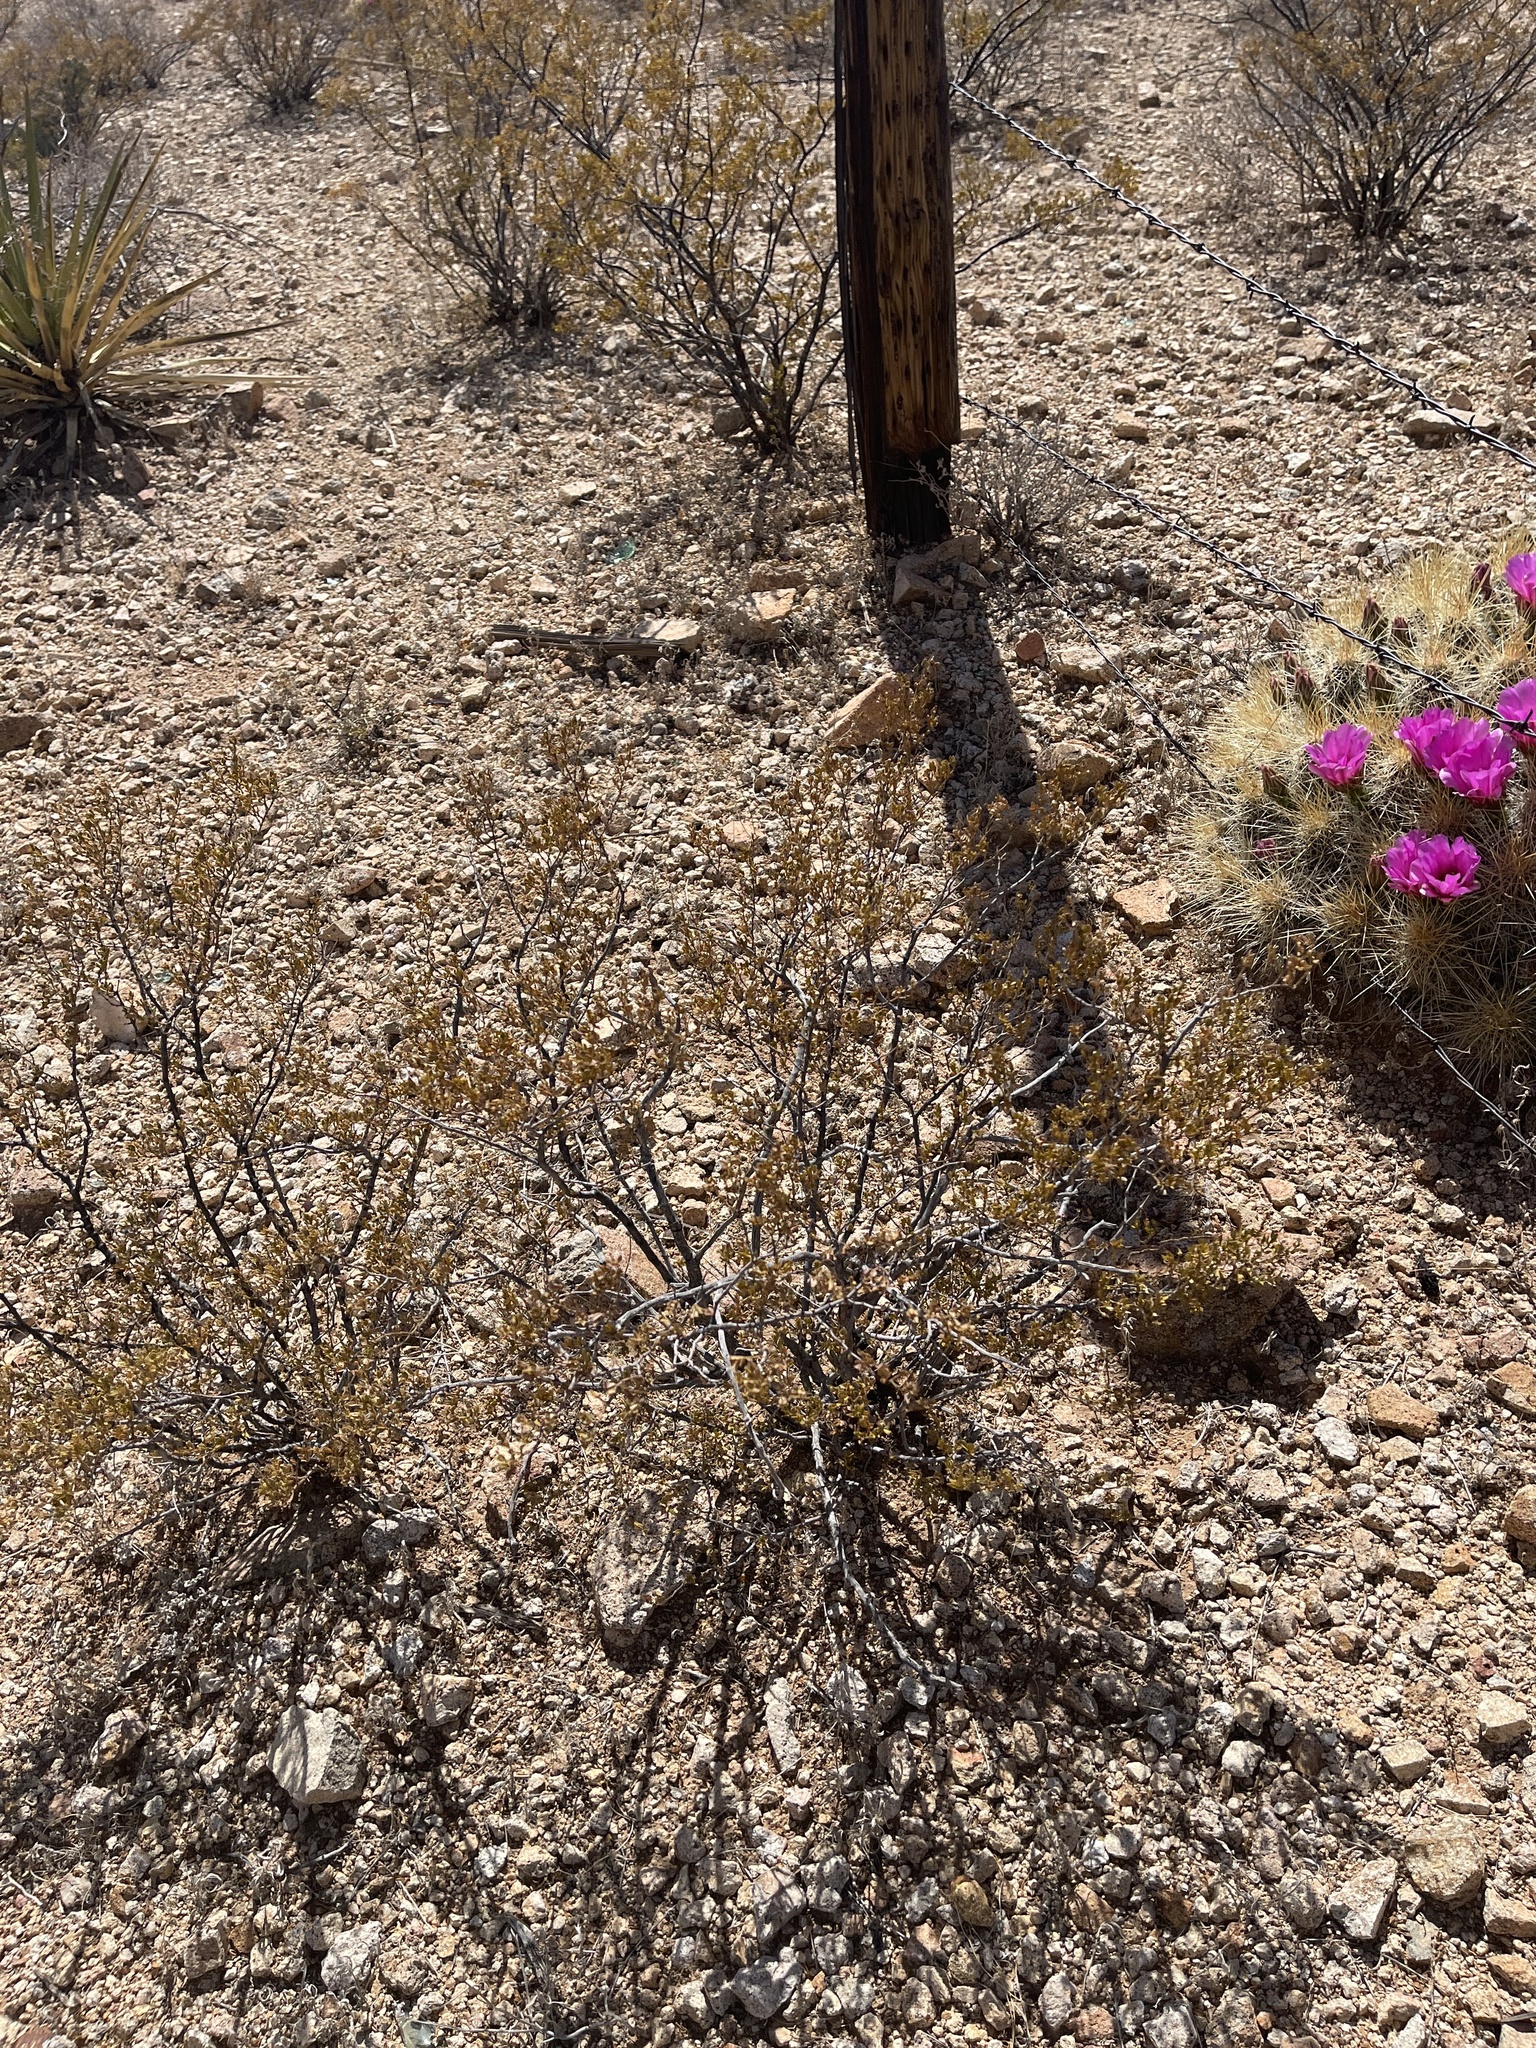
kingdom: Plantae
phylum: Tracheophyta
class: Magnoliopsida
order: Zygophyllales
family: Zygophyllaceae
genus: Larrea
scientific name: Larrea tridentata
